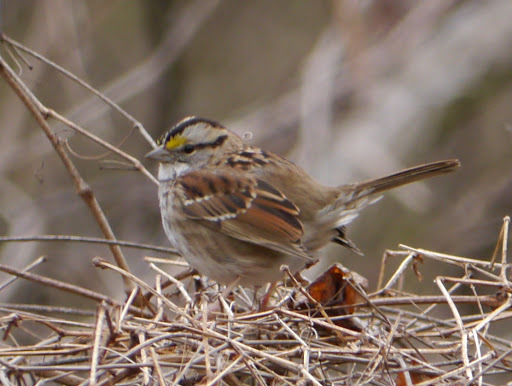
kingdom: Animalia
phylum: Chordata
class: Aves
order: Passeriformes
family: Passerellidae
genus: Zonotrichia
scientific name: Zonotrichia albicollis
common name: White-throated sparrow
